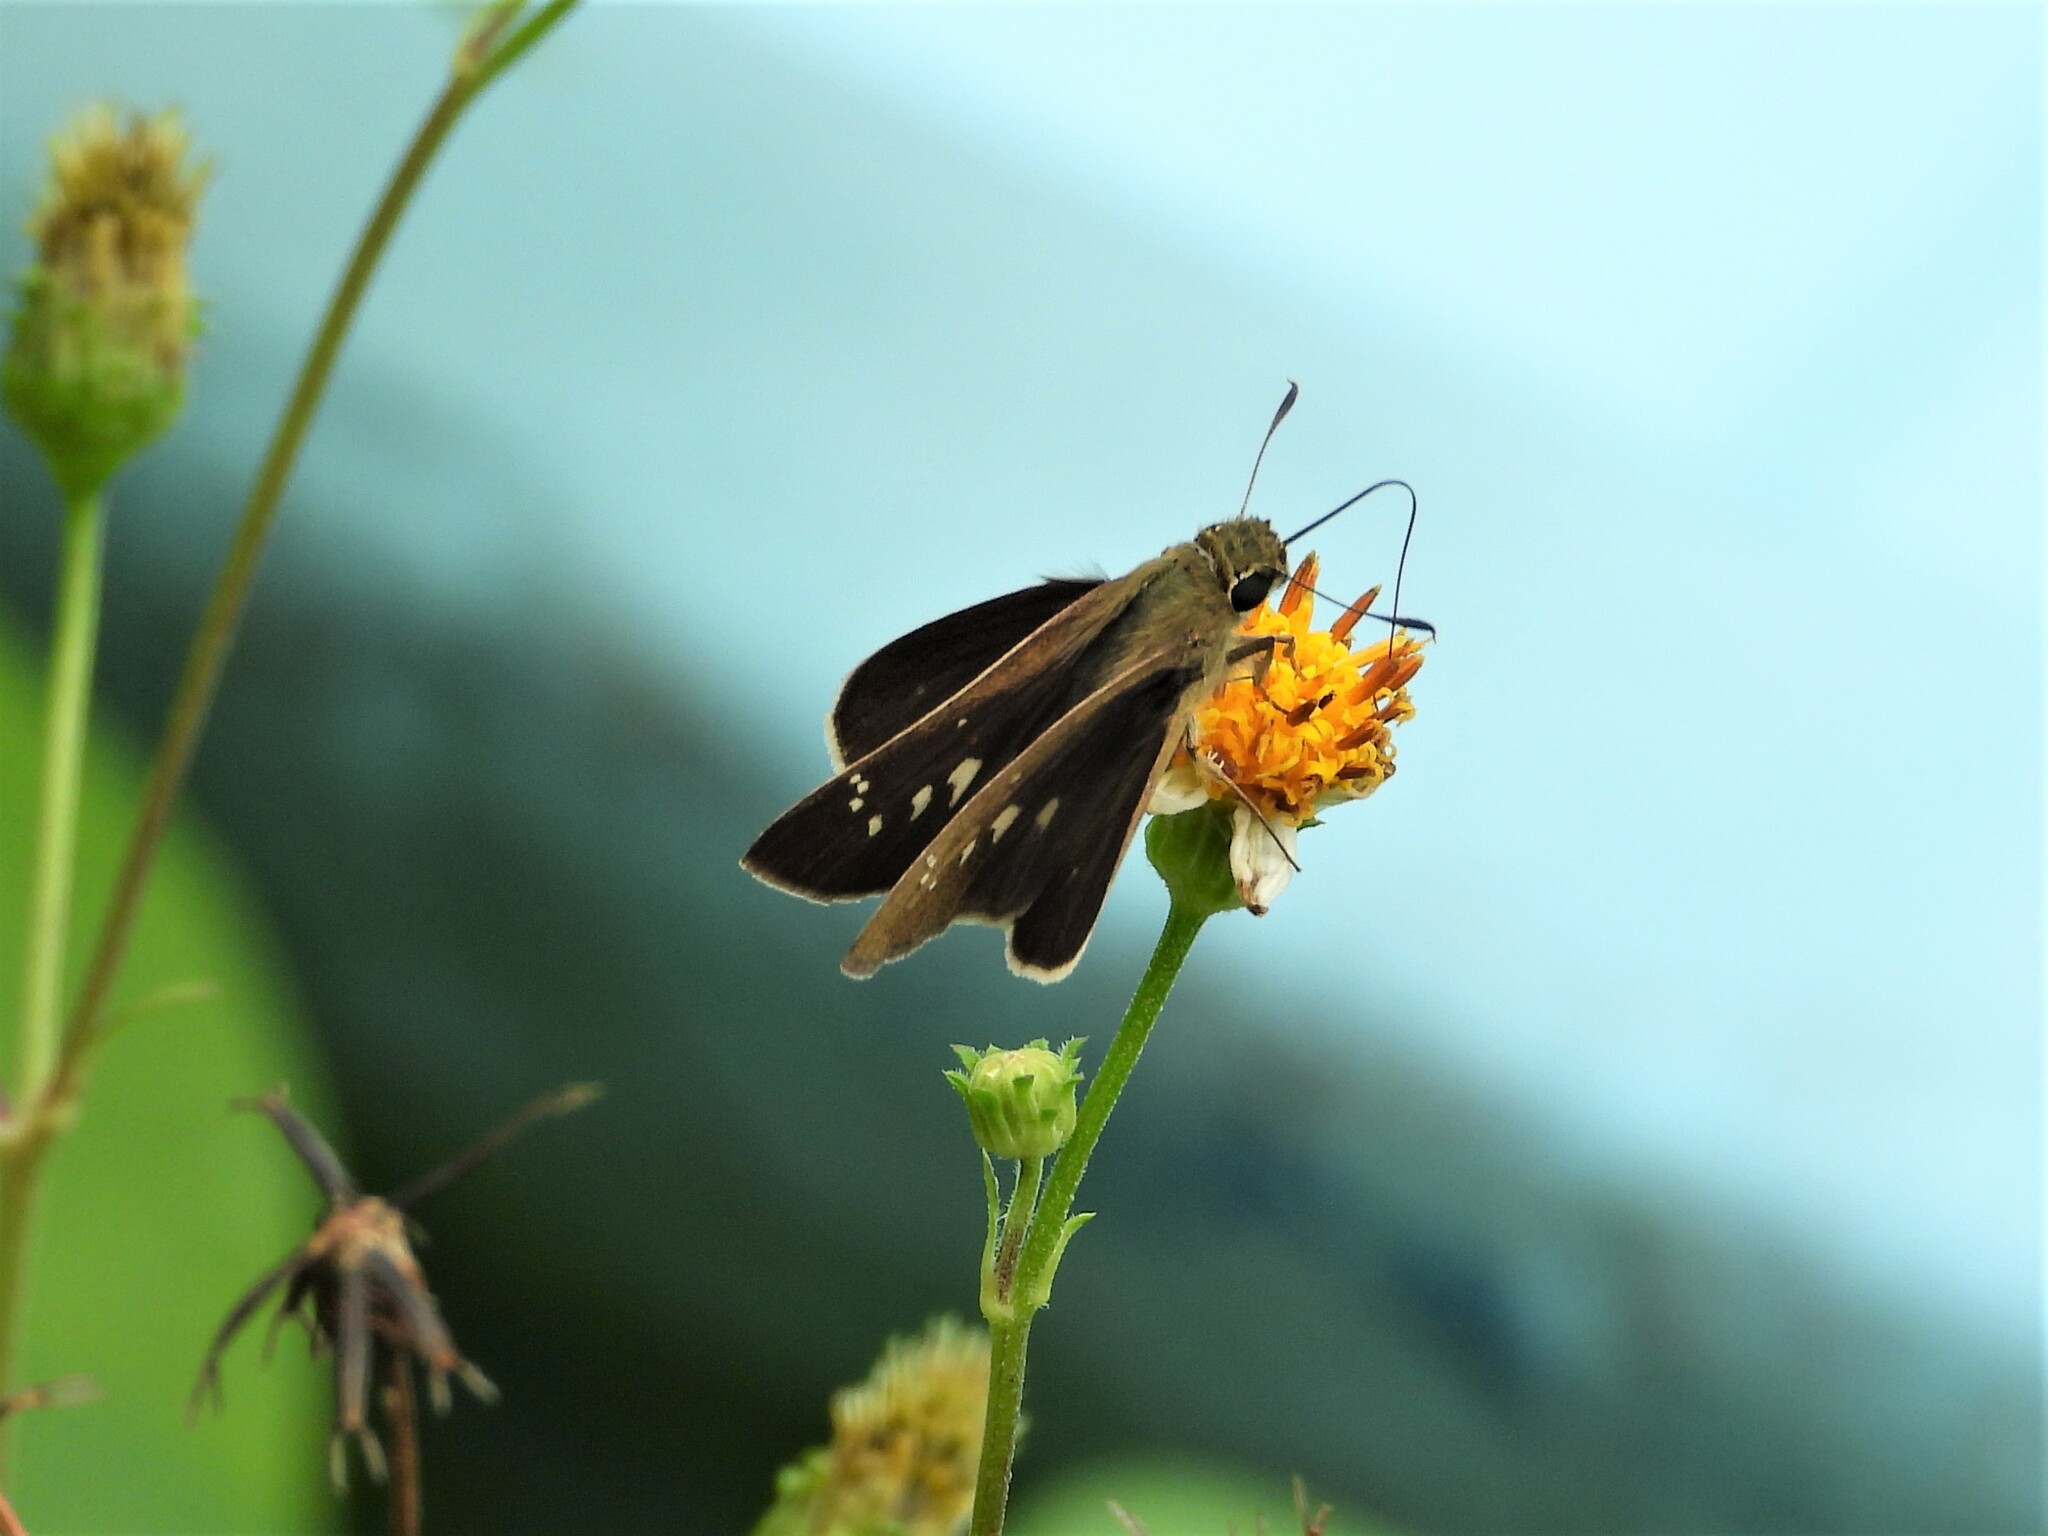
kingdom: Animalia
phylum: Arthropoda
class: Insecta
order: Lepidoptera
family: Hesperiidae
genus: Borbo
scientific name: Borbo cinnara
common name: Formosan swift
